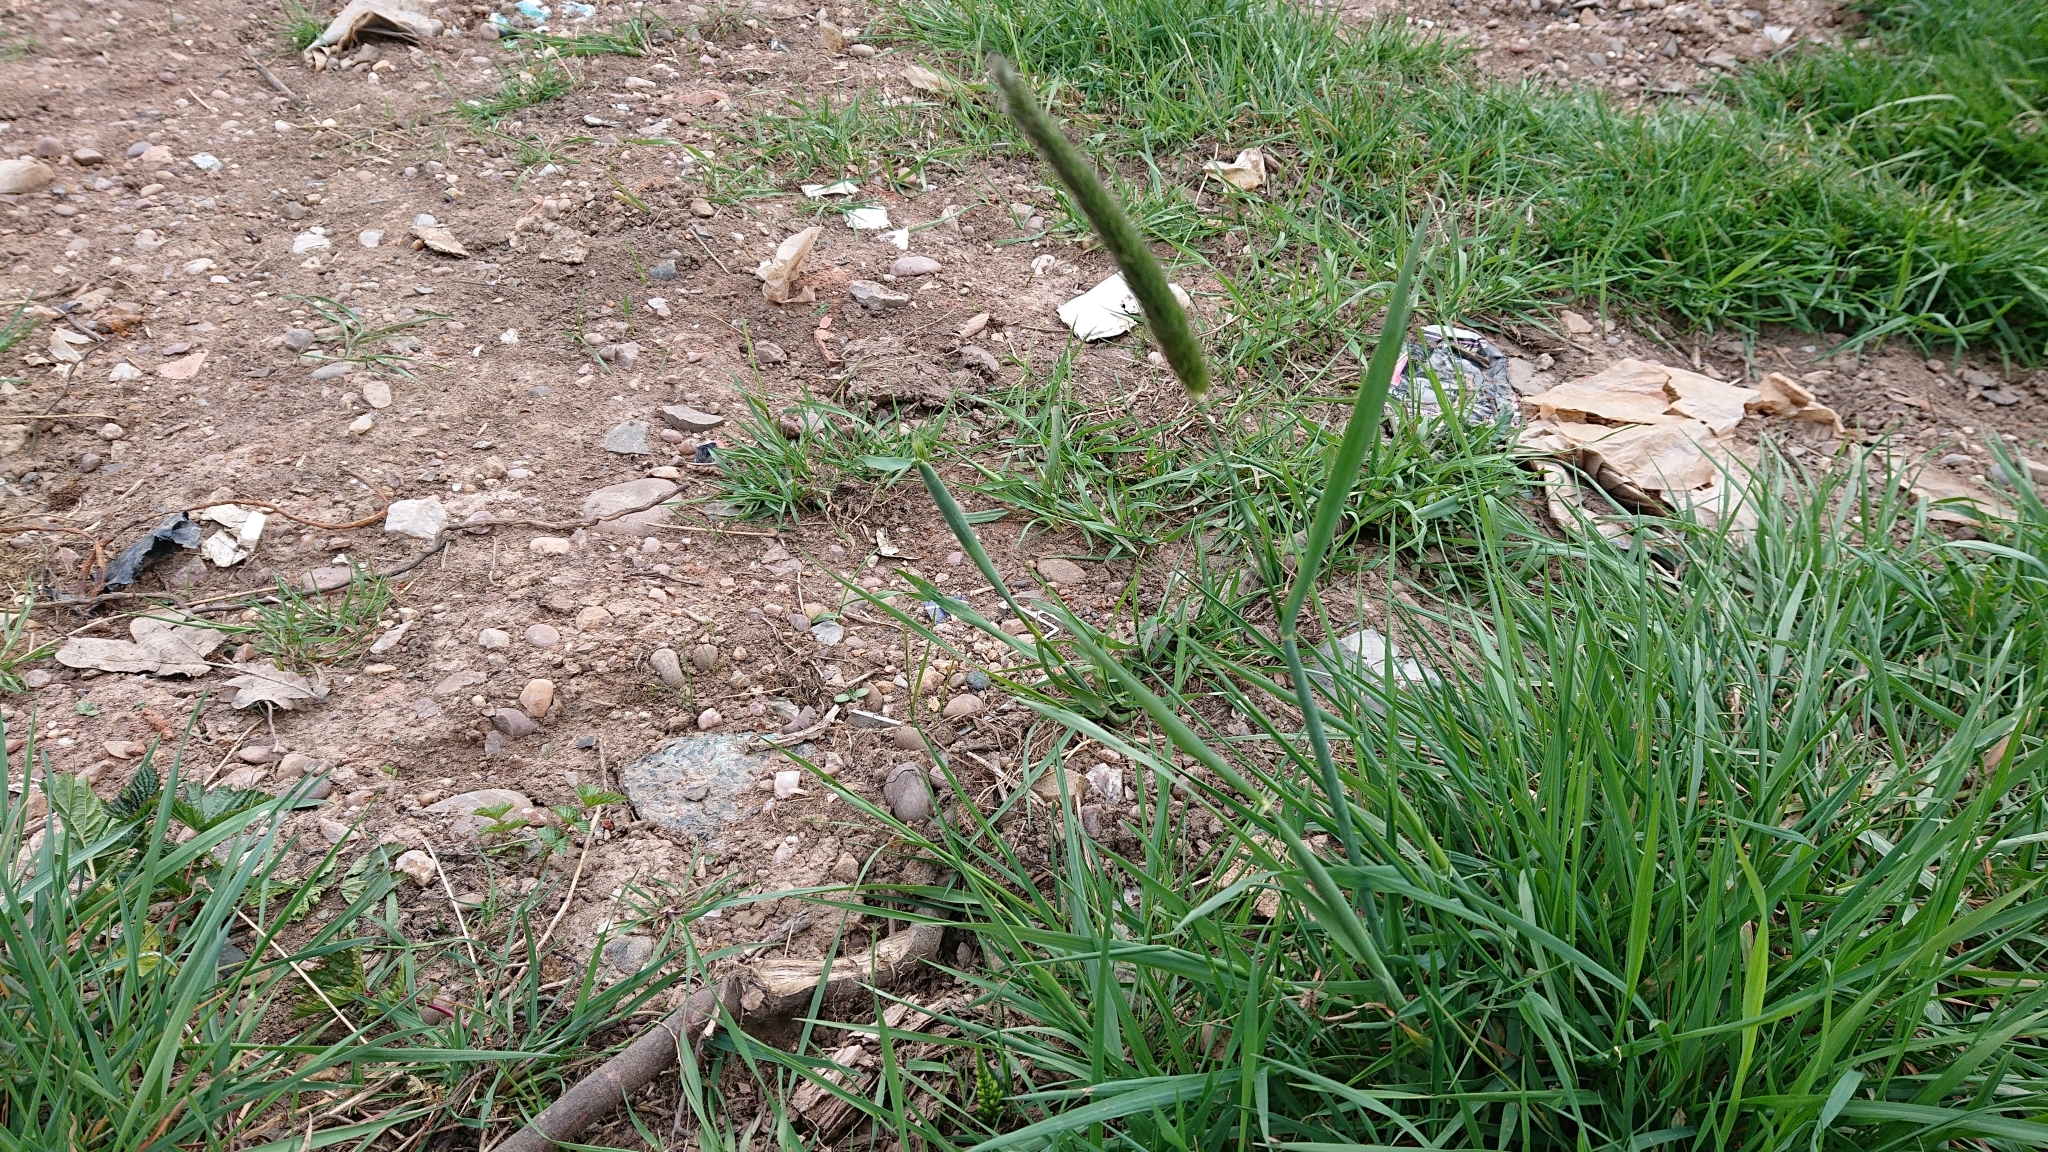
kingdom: Plantae
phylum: Tracheophyta
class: Liliopsida
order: Poales
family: Poaceae
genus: Alopecurus
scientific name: Alopecurus pratensis
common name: Meadow foxtail
